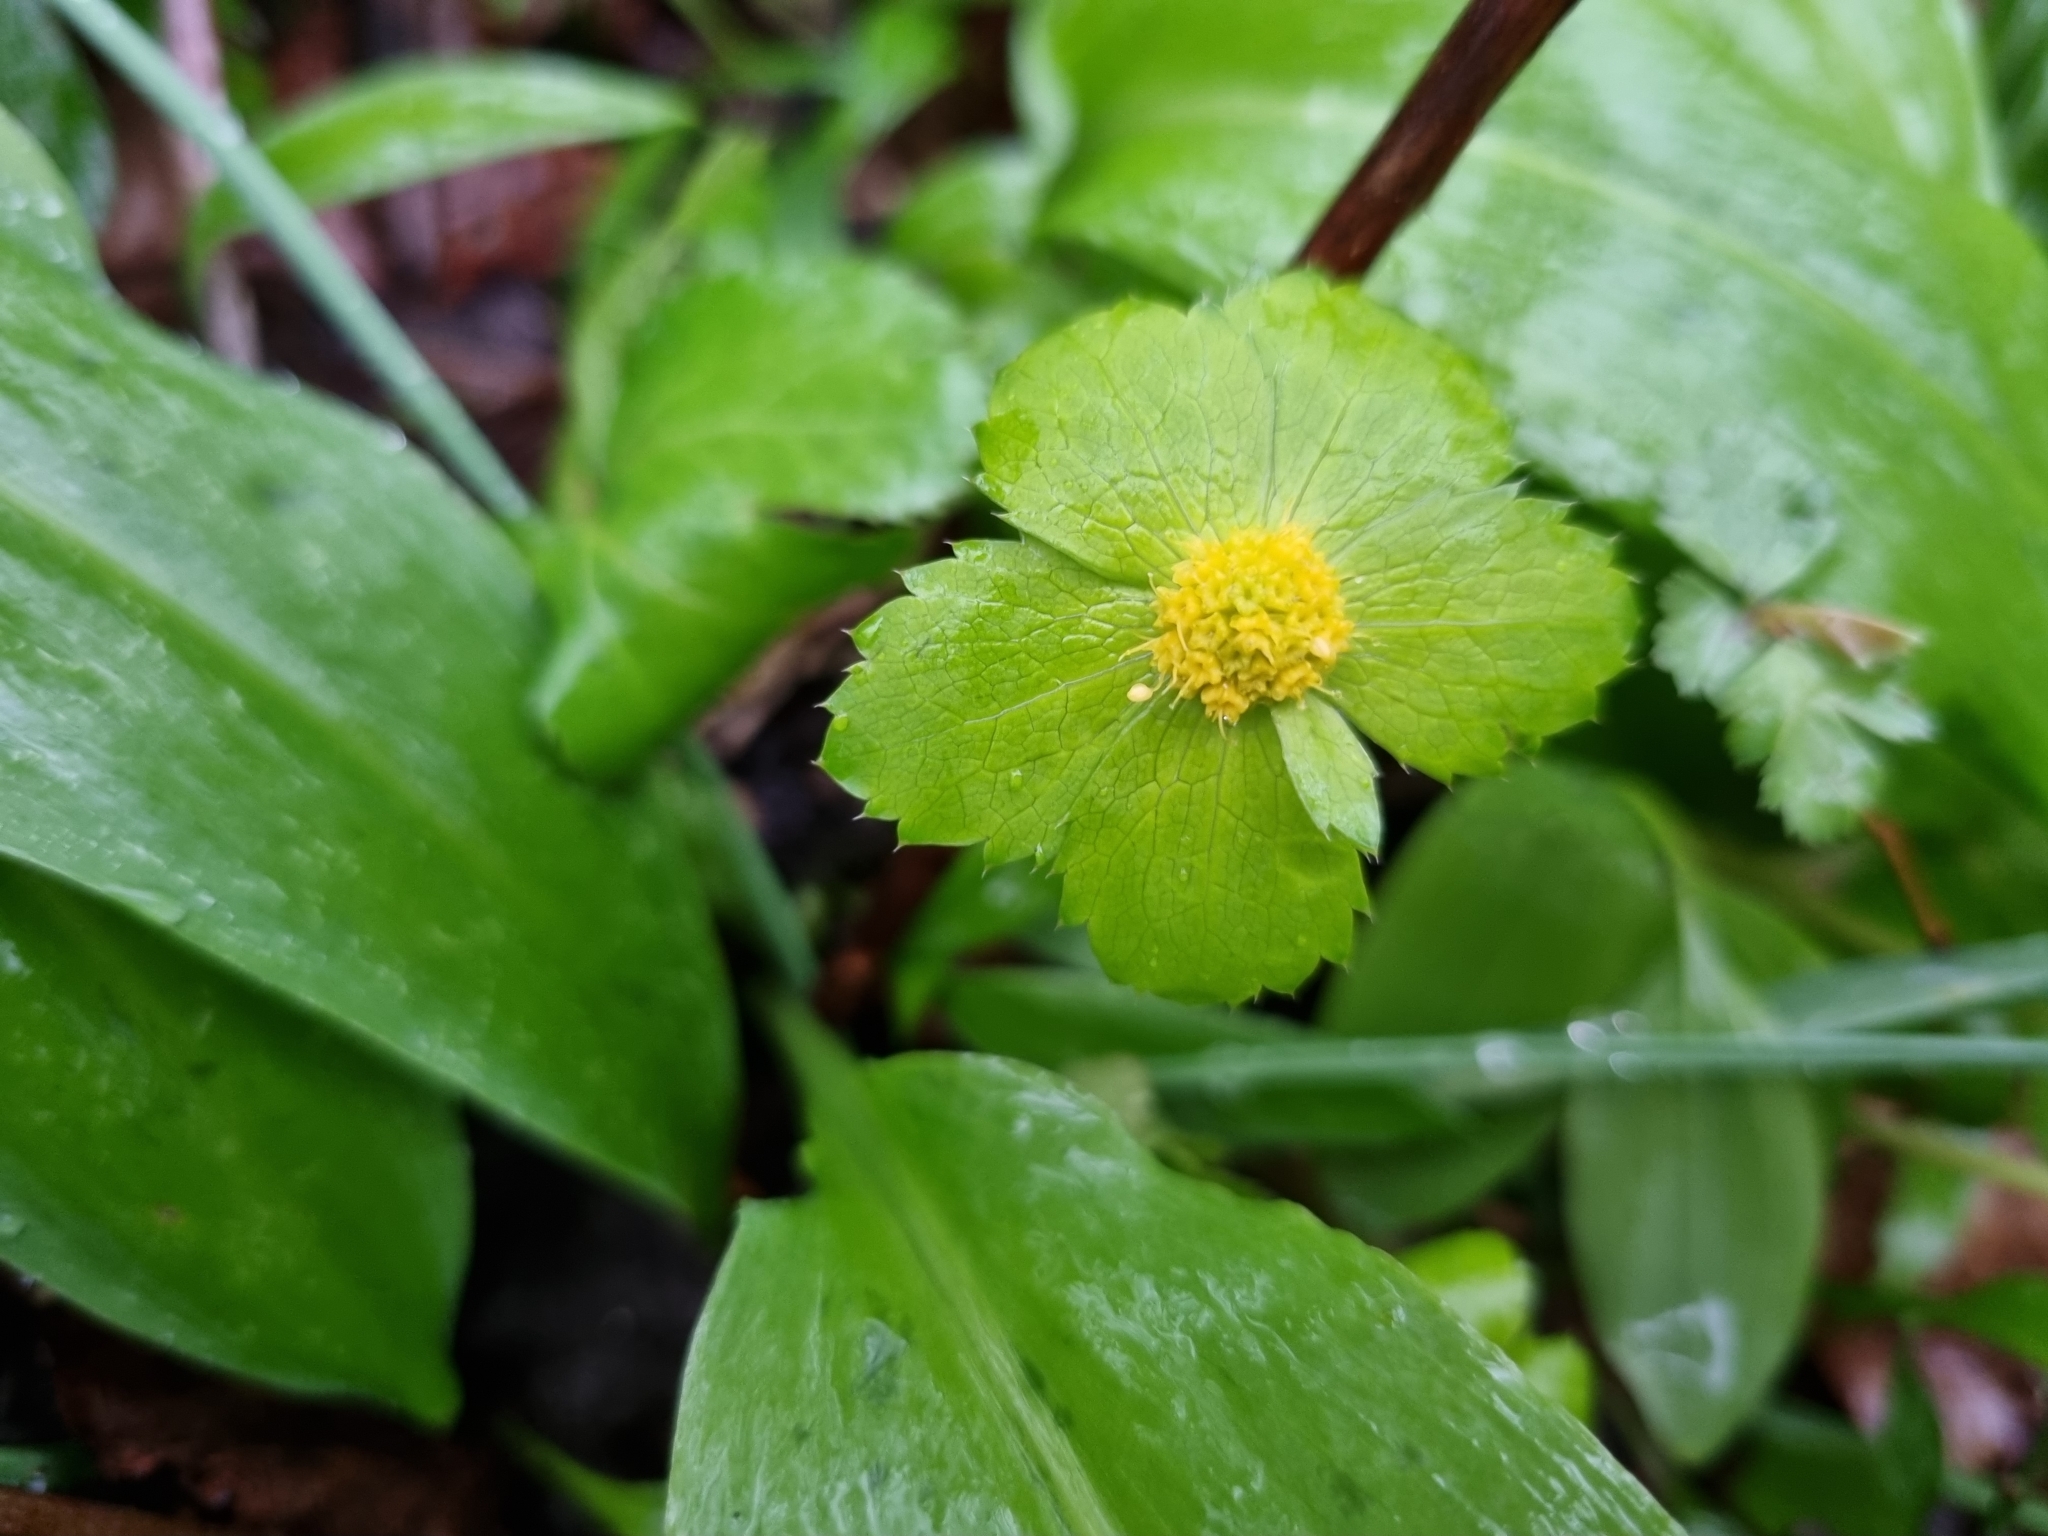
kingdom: Plantae
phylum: Tracheophyta
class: Magnoliopsida
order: Apiales
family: Apiaceae
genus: Sanicula
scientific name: Sanicula epipactis
